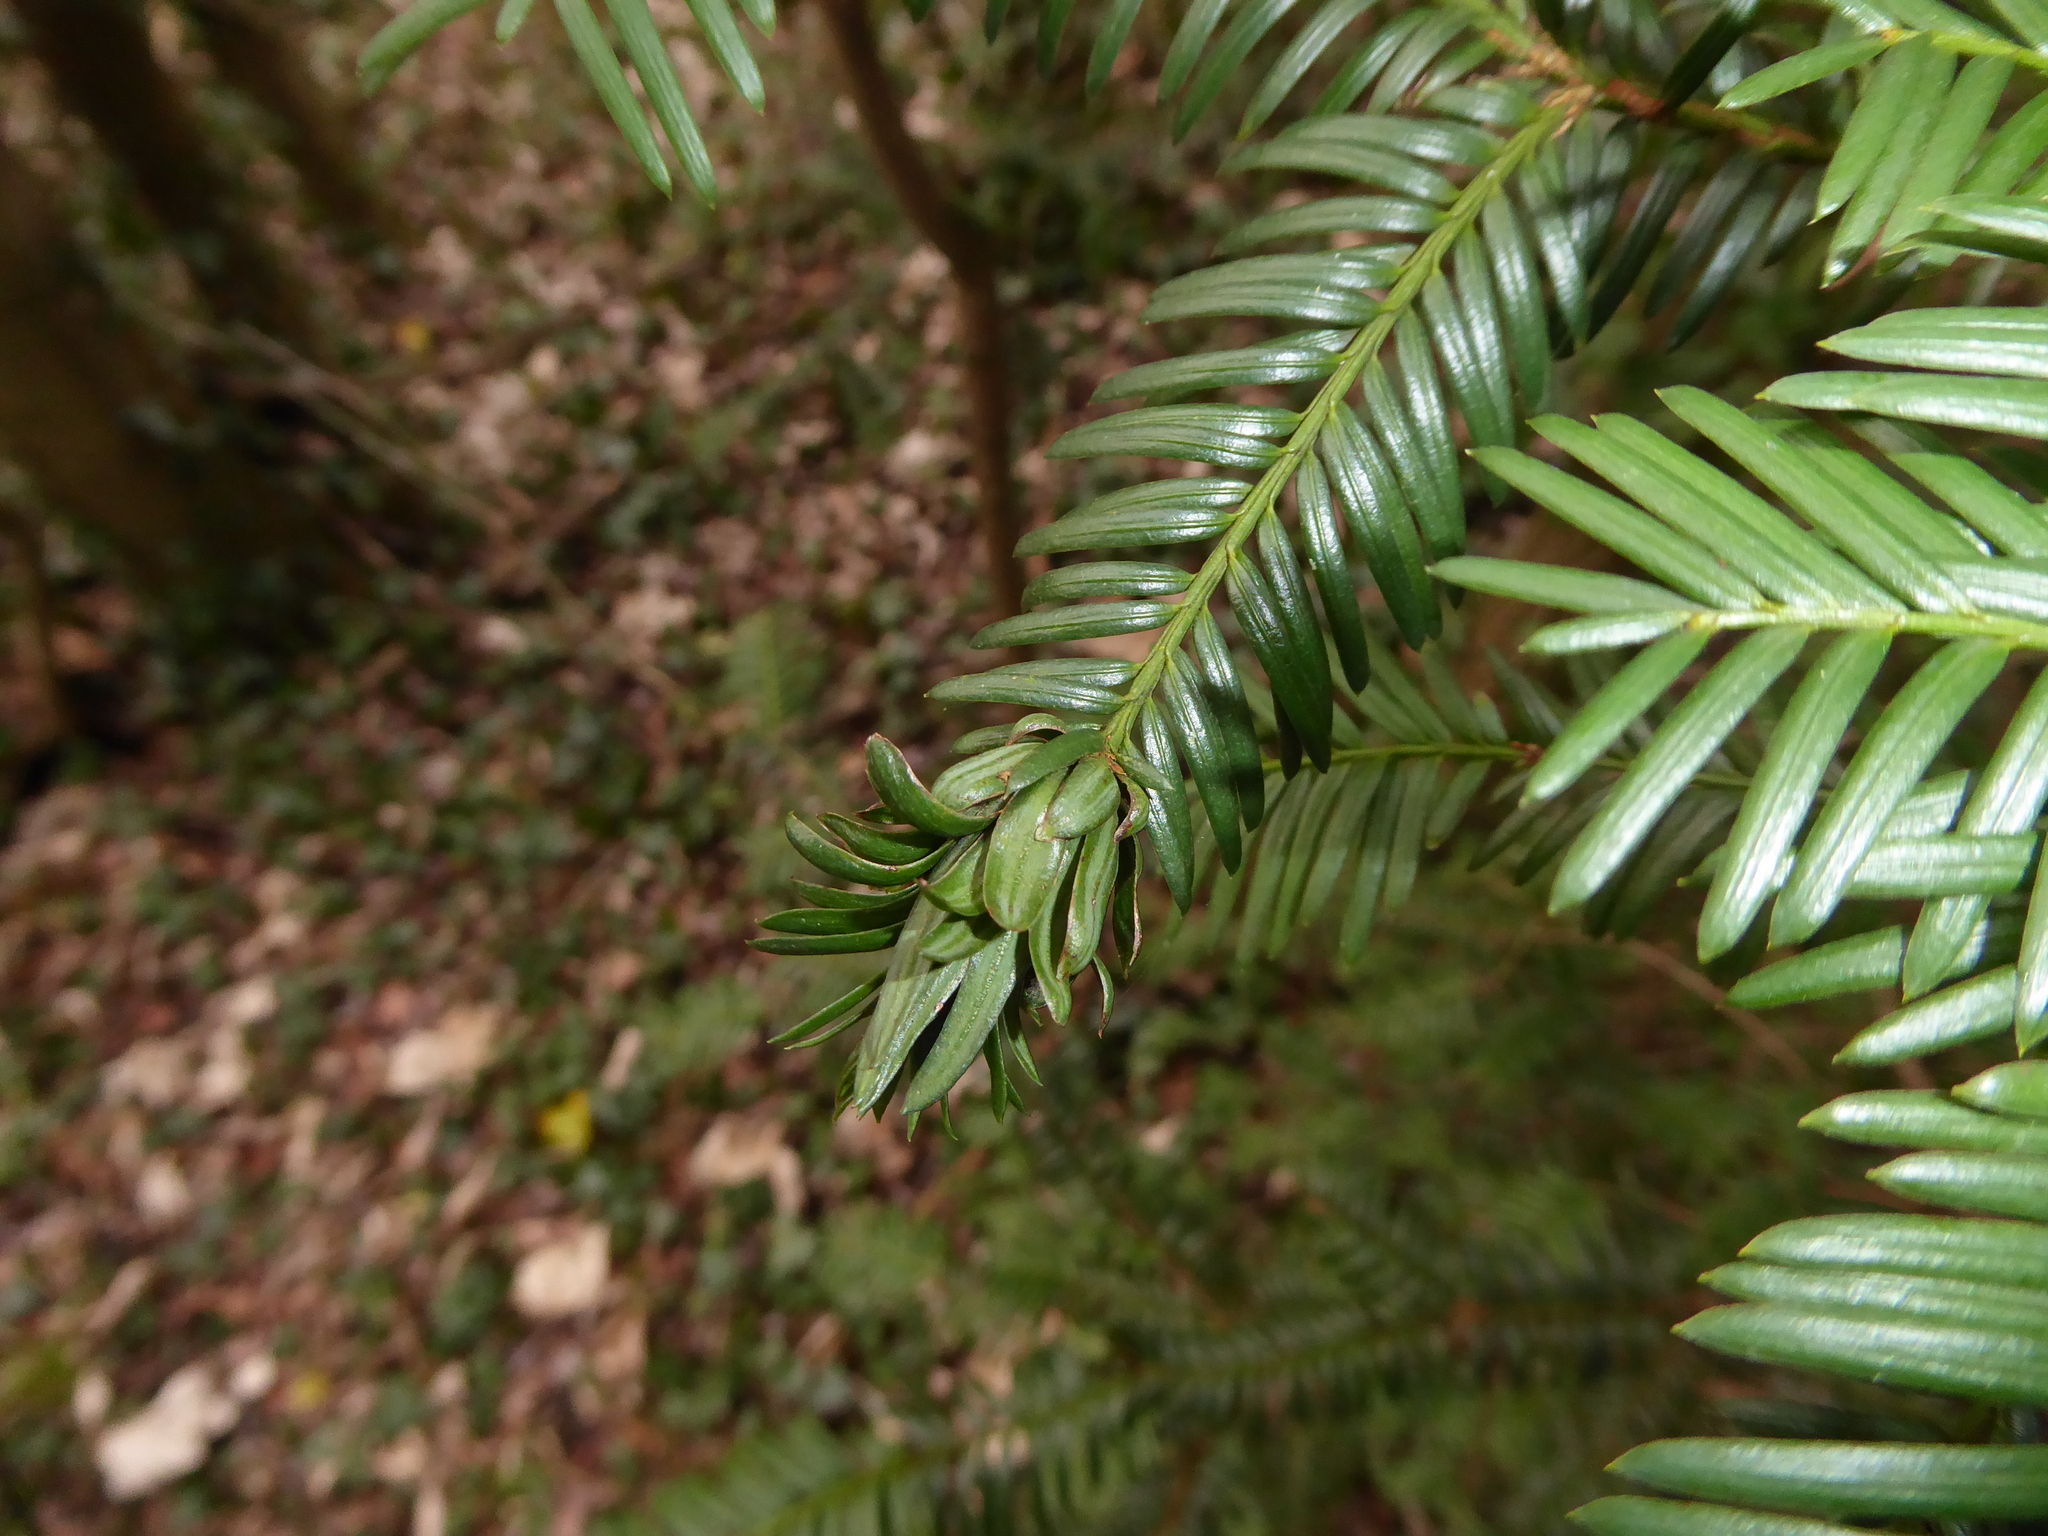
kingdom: Animalia
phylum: Arthropoda
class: Insecta
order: Diptera
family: Cecidomyiidae
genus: Taxomyia
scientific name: Taxomyia taxi
